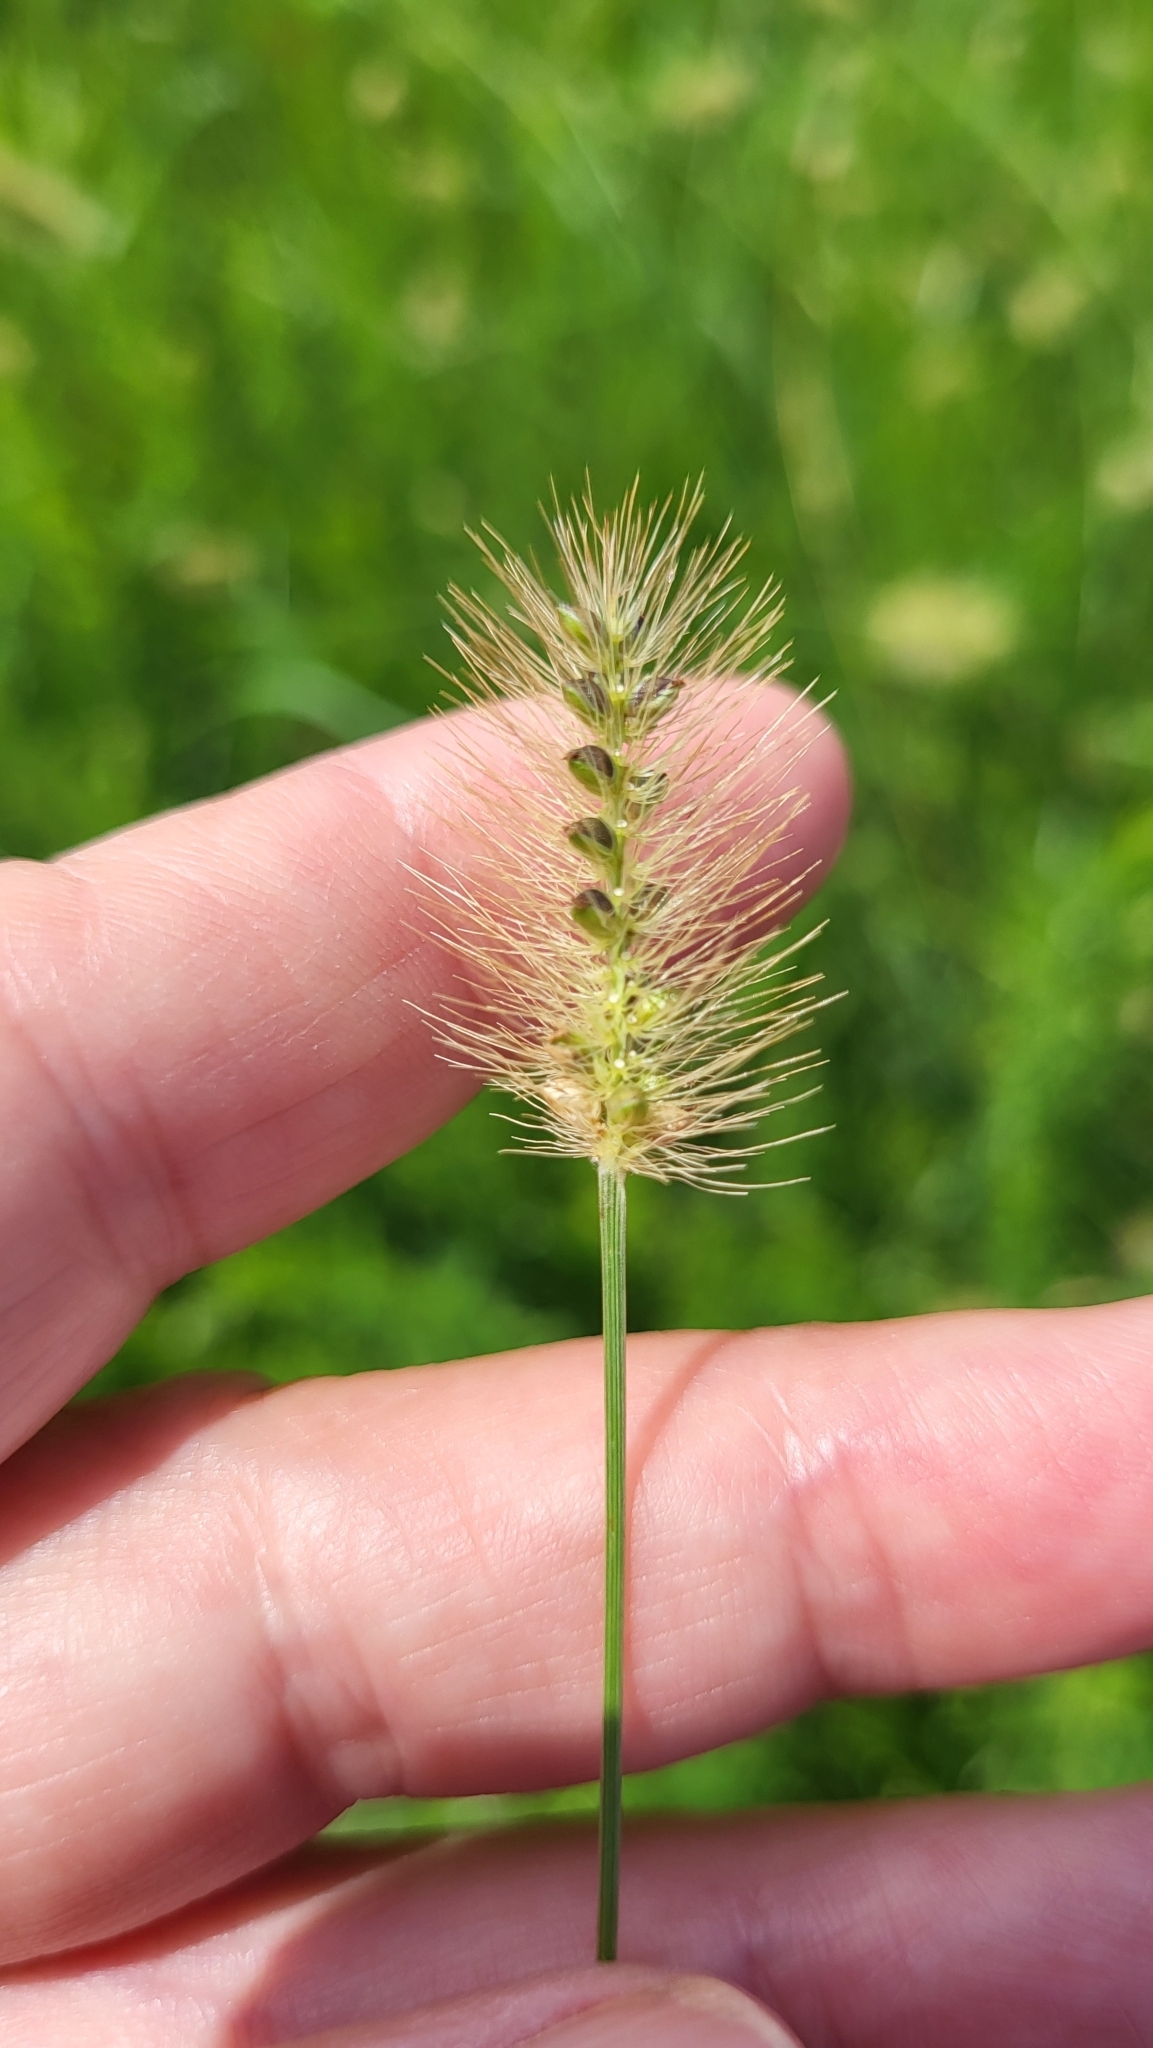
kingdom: Plantae
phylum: Tracheophyta
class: Liliopsida
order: Poales
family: Poaceae
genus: Setaria
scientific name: Setaria parviflora
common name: Knotroot bristle-grass
